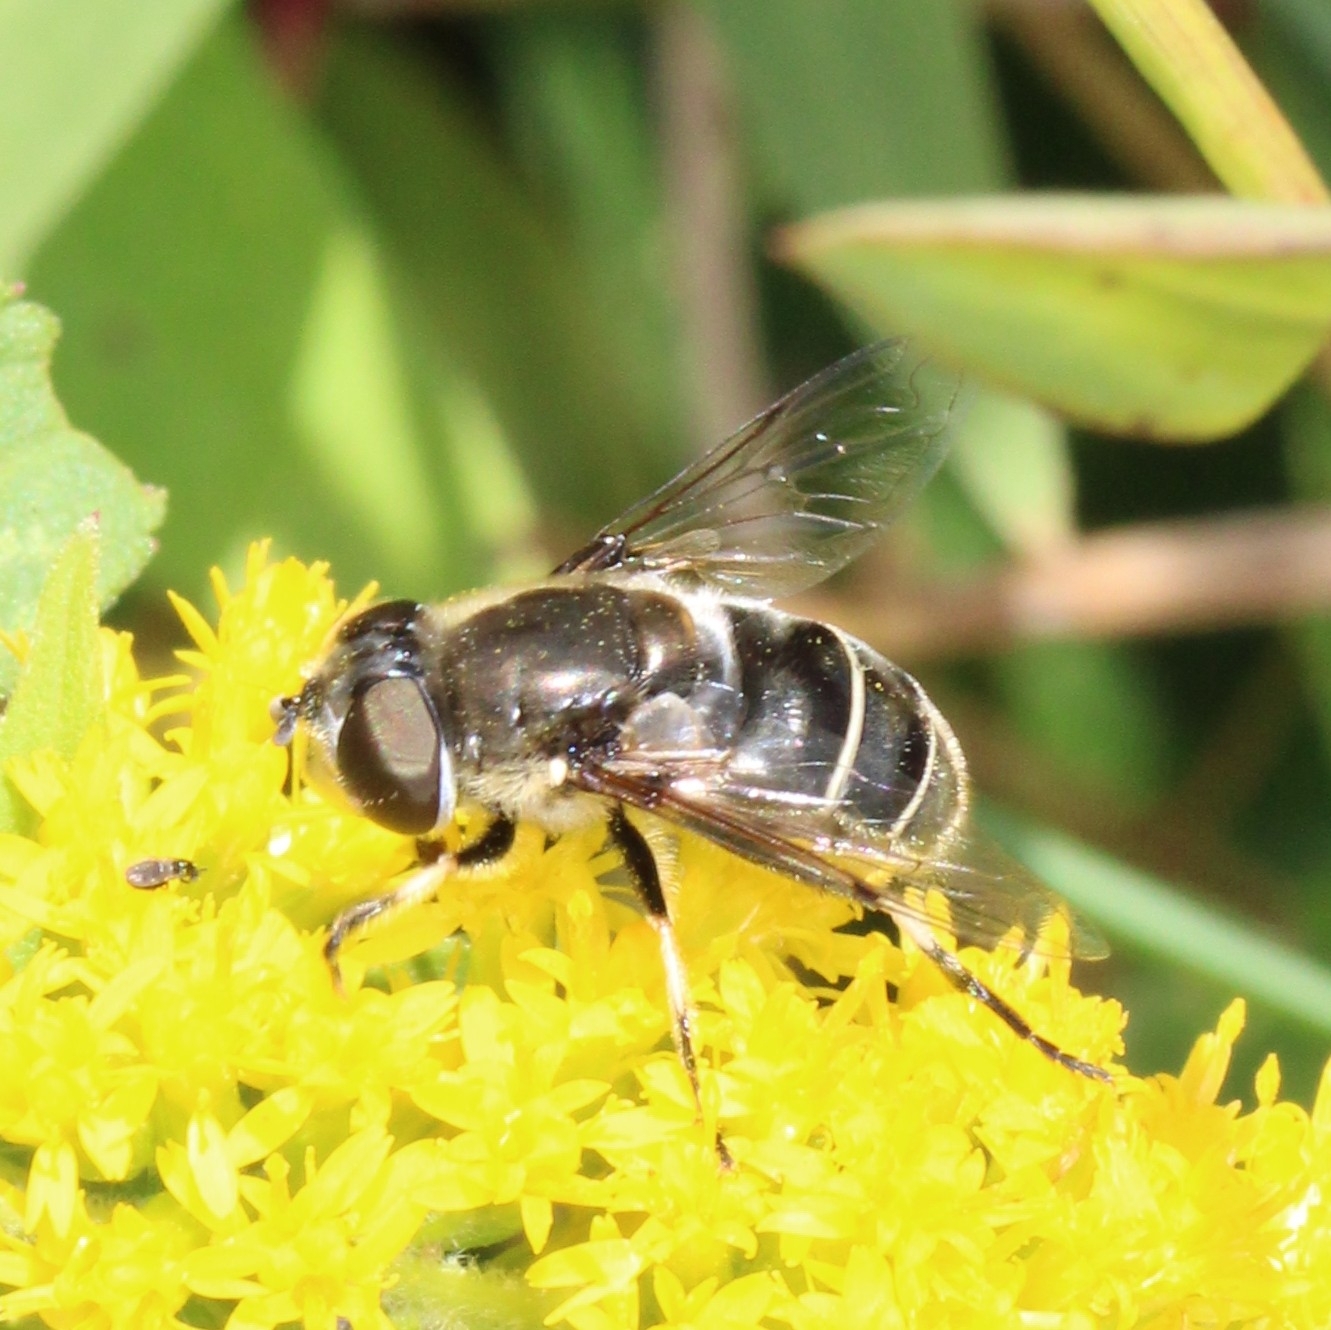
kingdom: Animalia
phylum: Arthropoda
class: Insecta
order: Diptera
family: Syrphidae
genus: Eristalis
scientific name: Eristalis dimidiata
